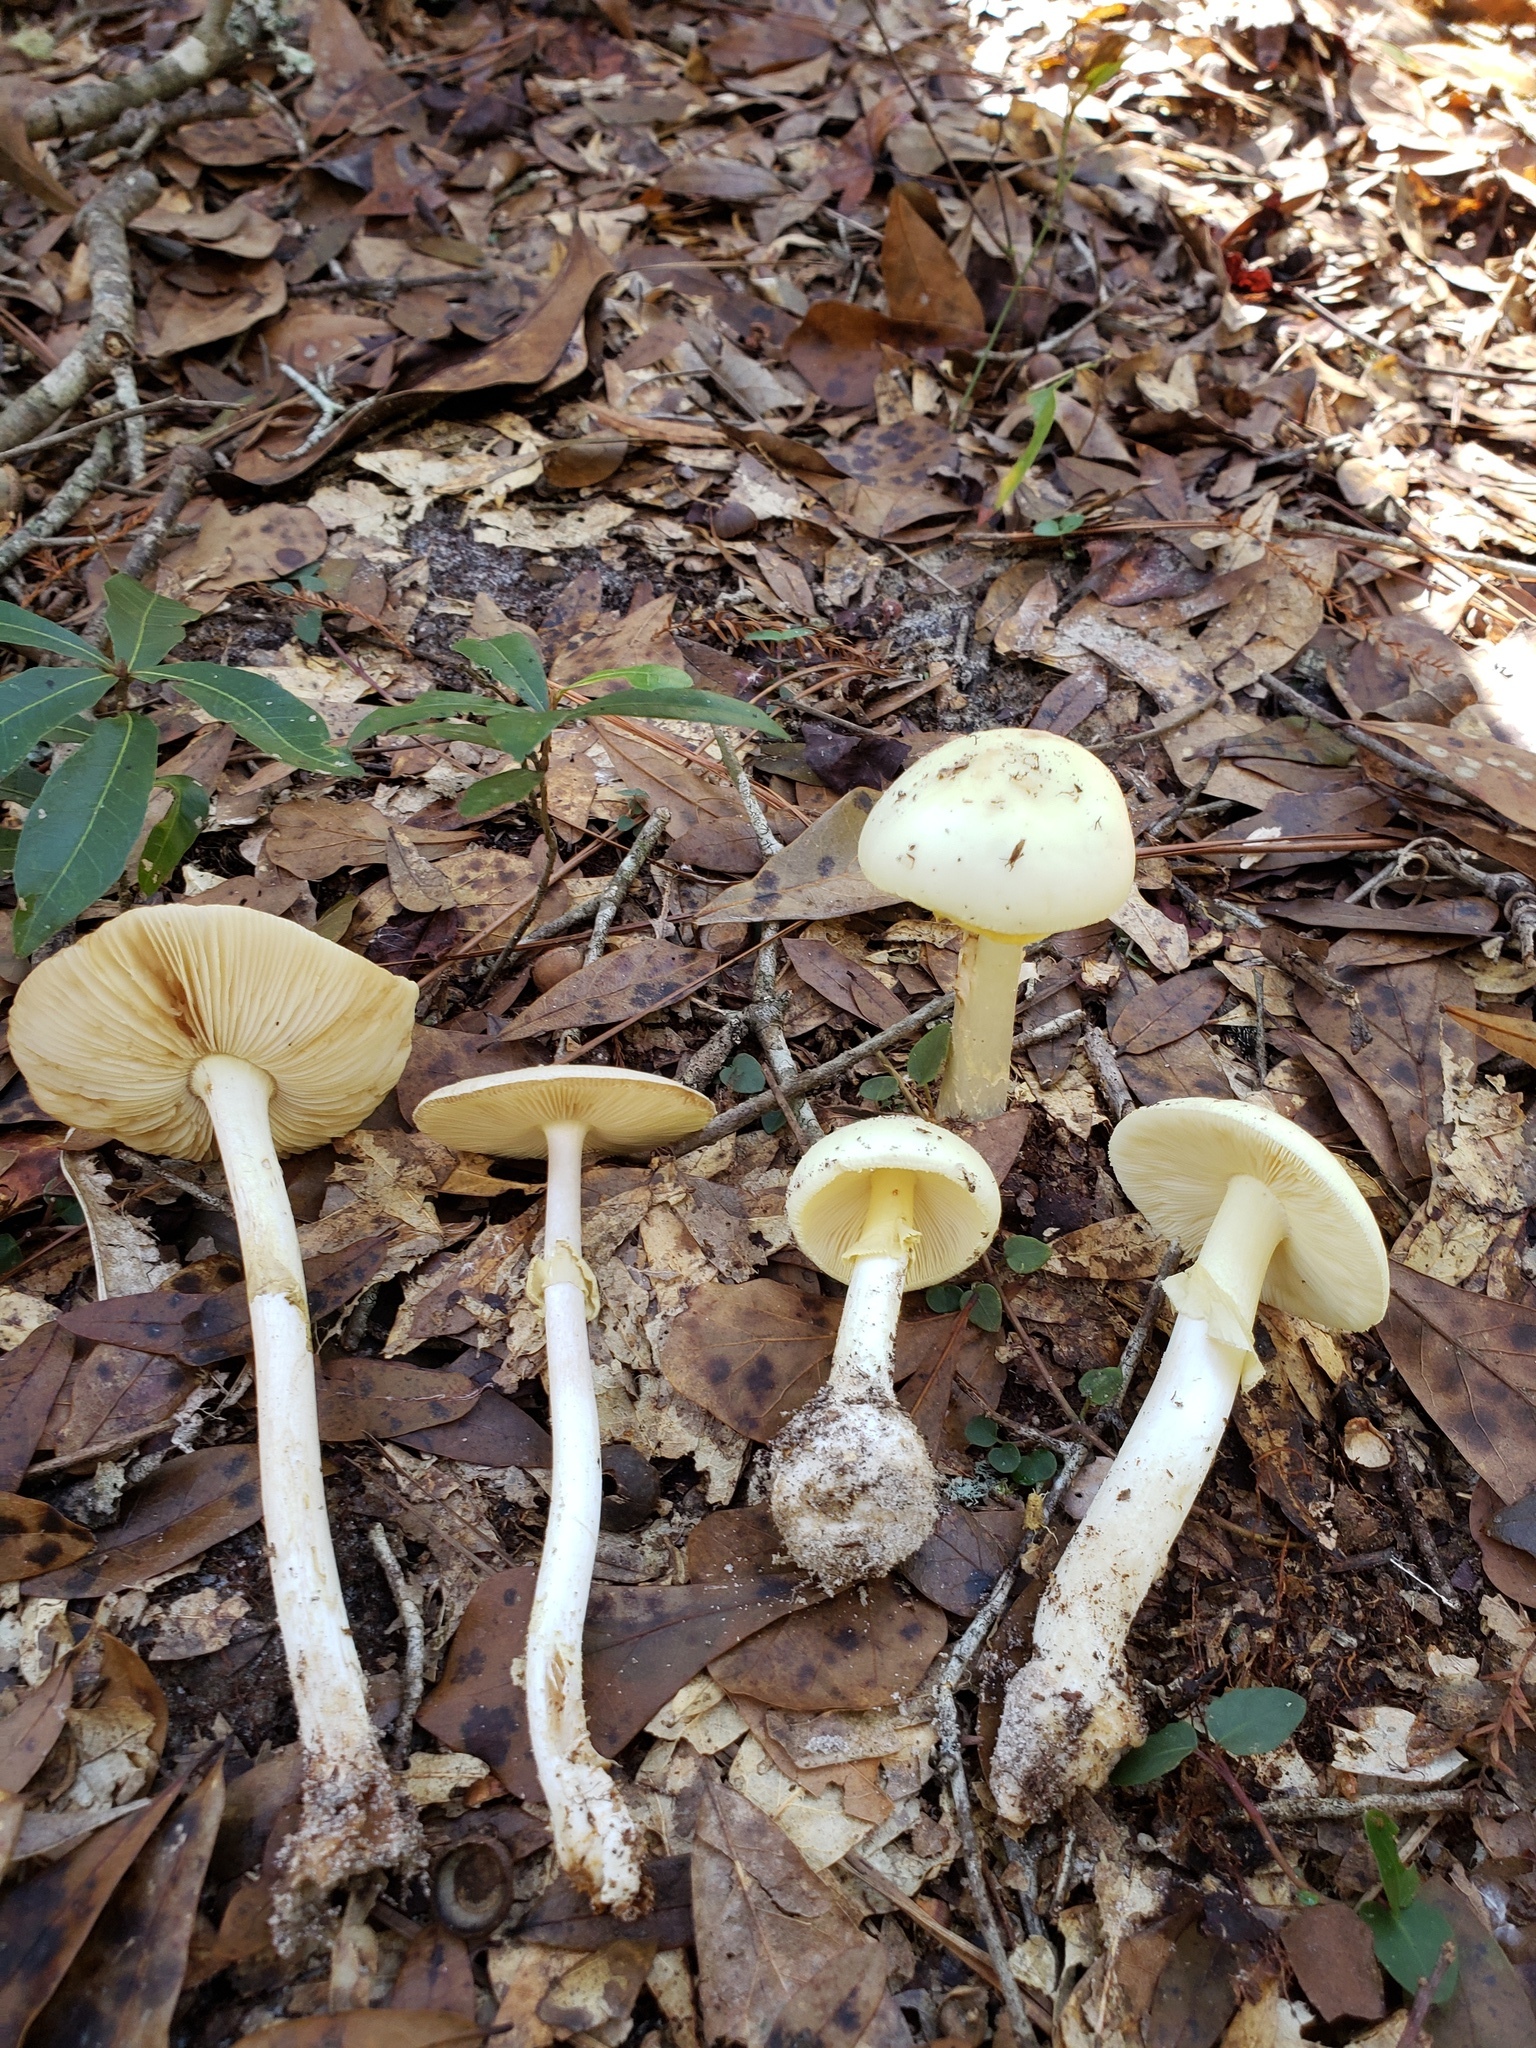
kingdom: Fungi
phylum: Basidiomycota
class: Agaricomycetes
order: Agaricales
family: Amanitaceae
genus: Amanita
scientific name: Amanita lavendula
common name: Coker's lavender staining amanita
